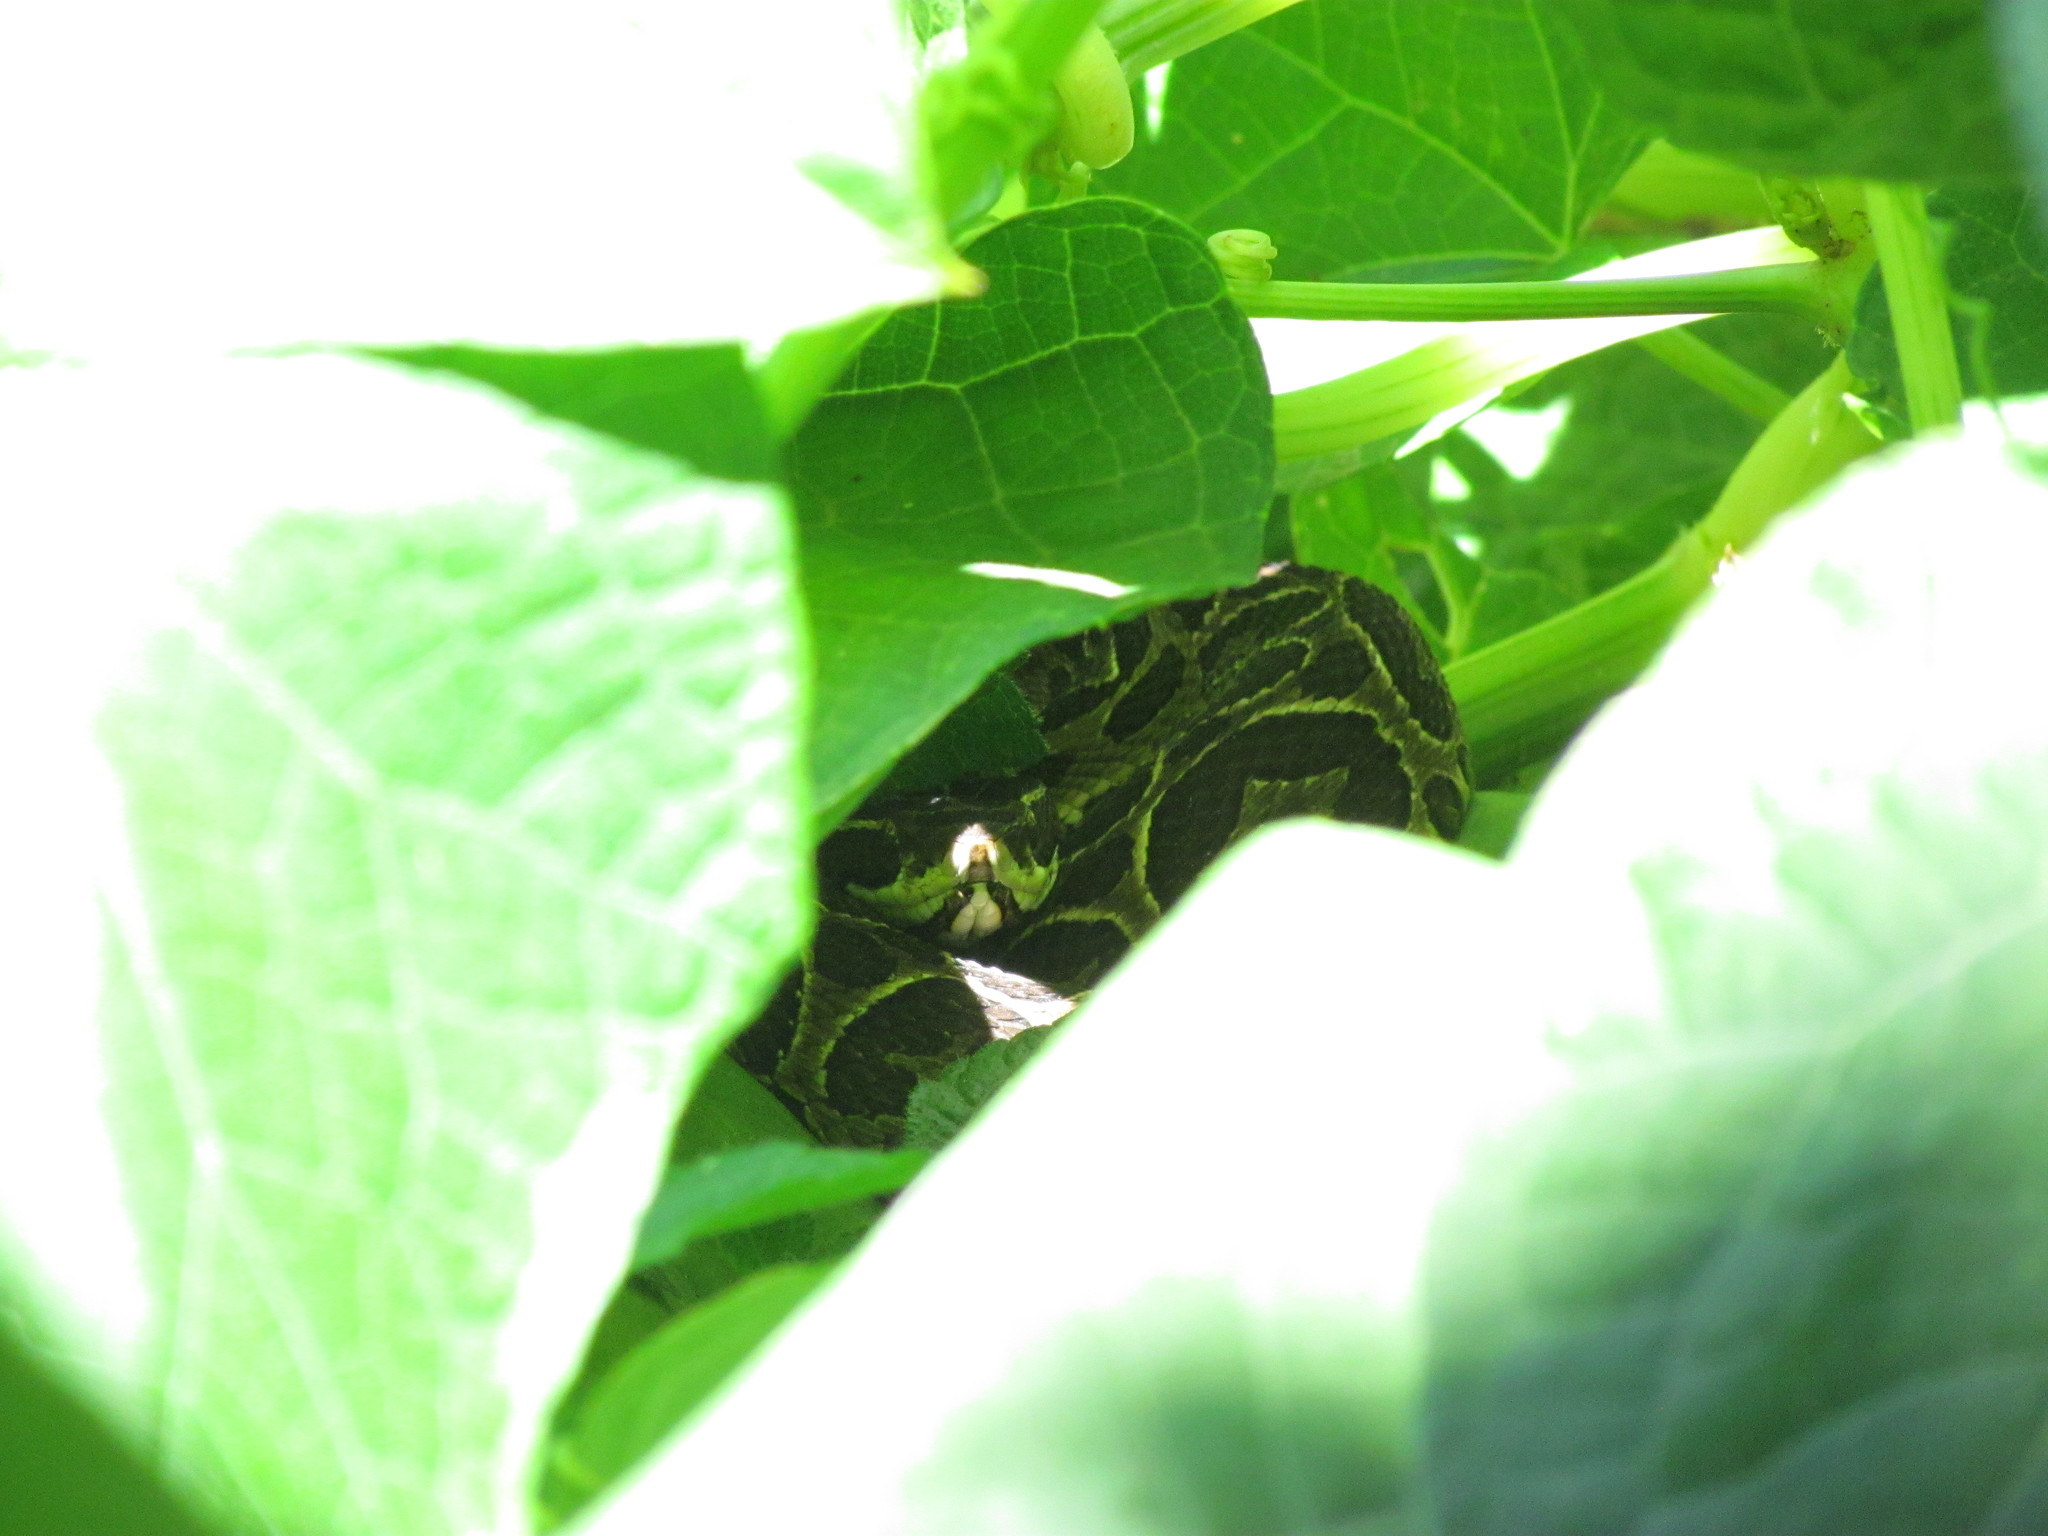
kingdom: Animalia
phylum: Chordata
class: Squamata
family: Viperidae
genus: Bothrops
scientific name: Bothrops alternatus
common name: Urutu
